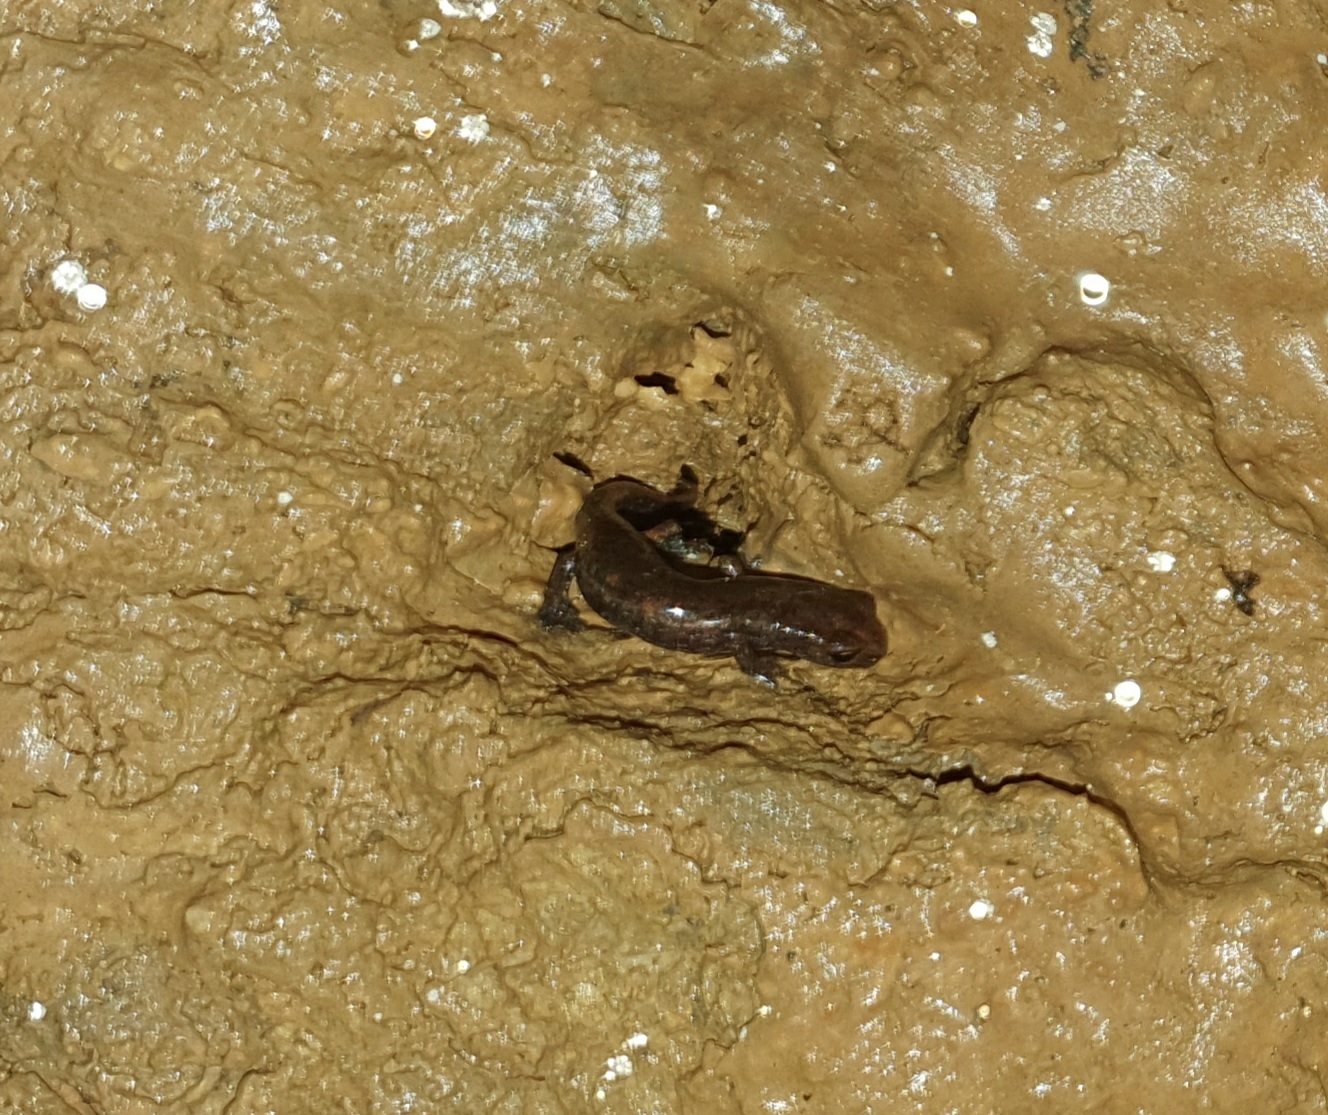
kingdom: Animalia
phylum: Chordata
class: Amphibia
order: Caudata
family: Plethodontidae
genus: Speleomantes
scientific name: Speleomantes ambrosii
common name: Ambrosi's cave salamander
